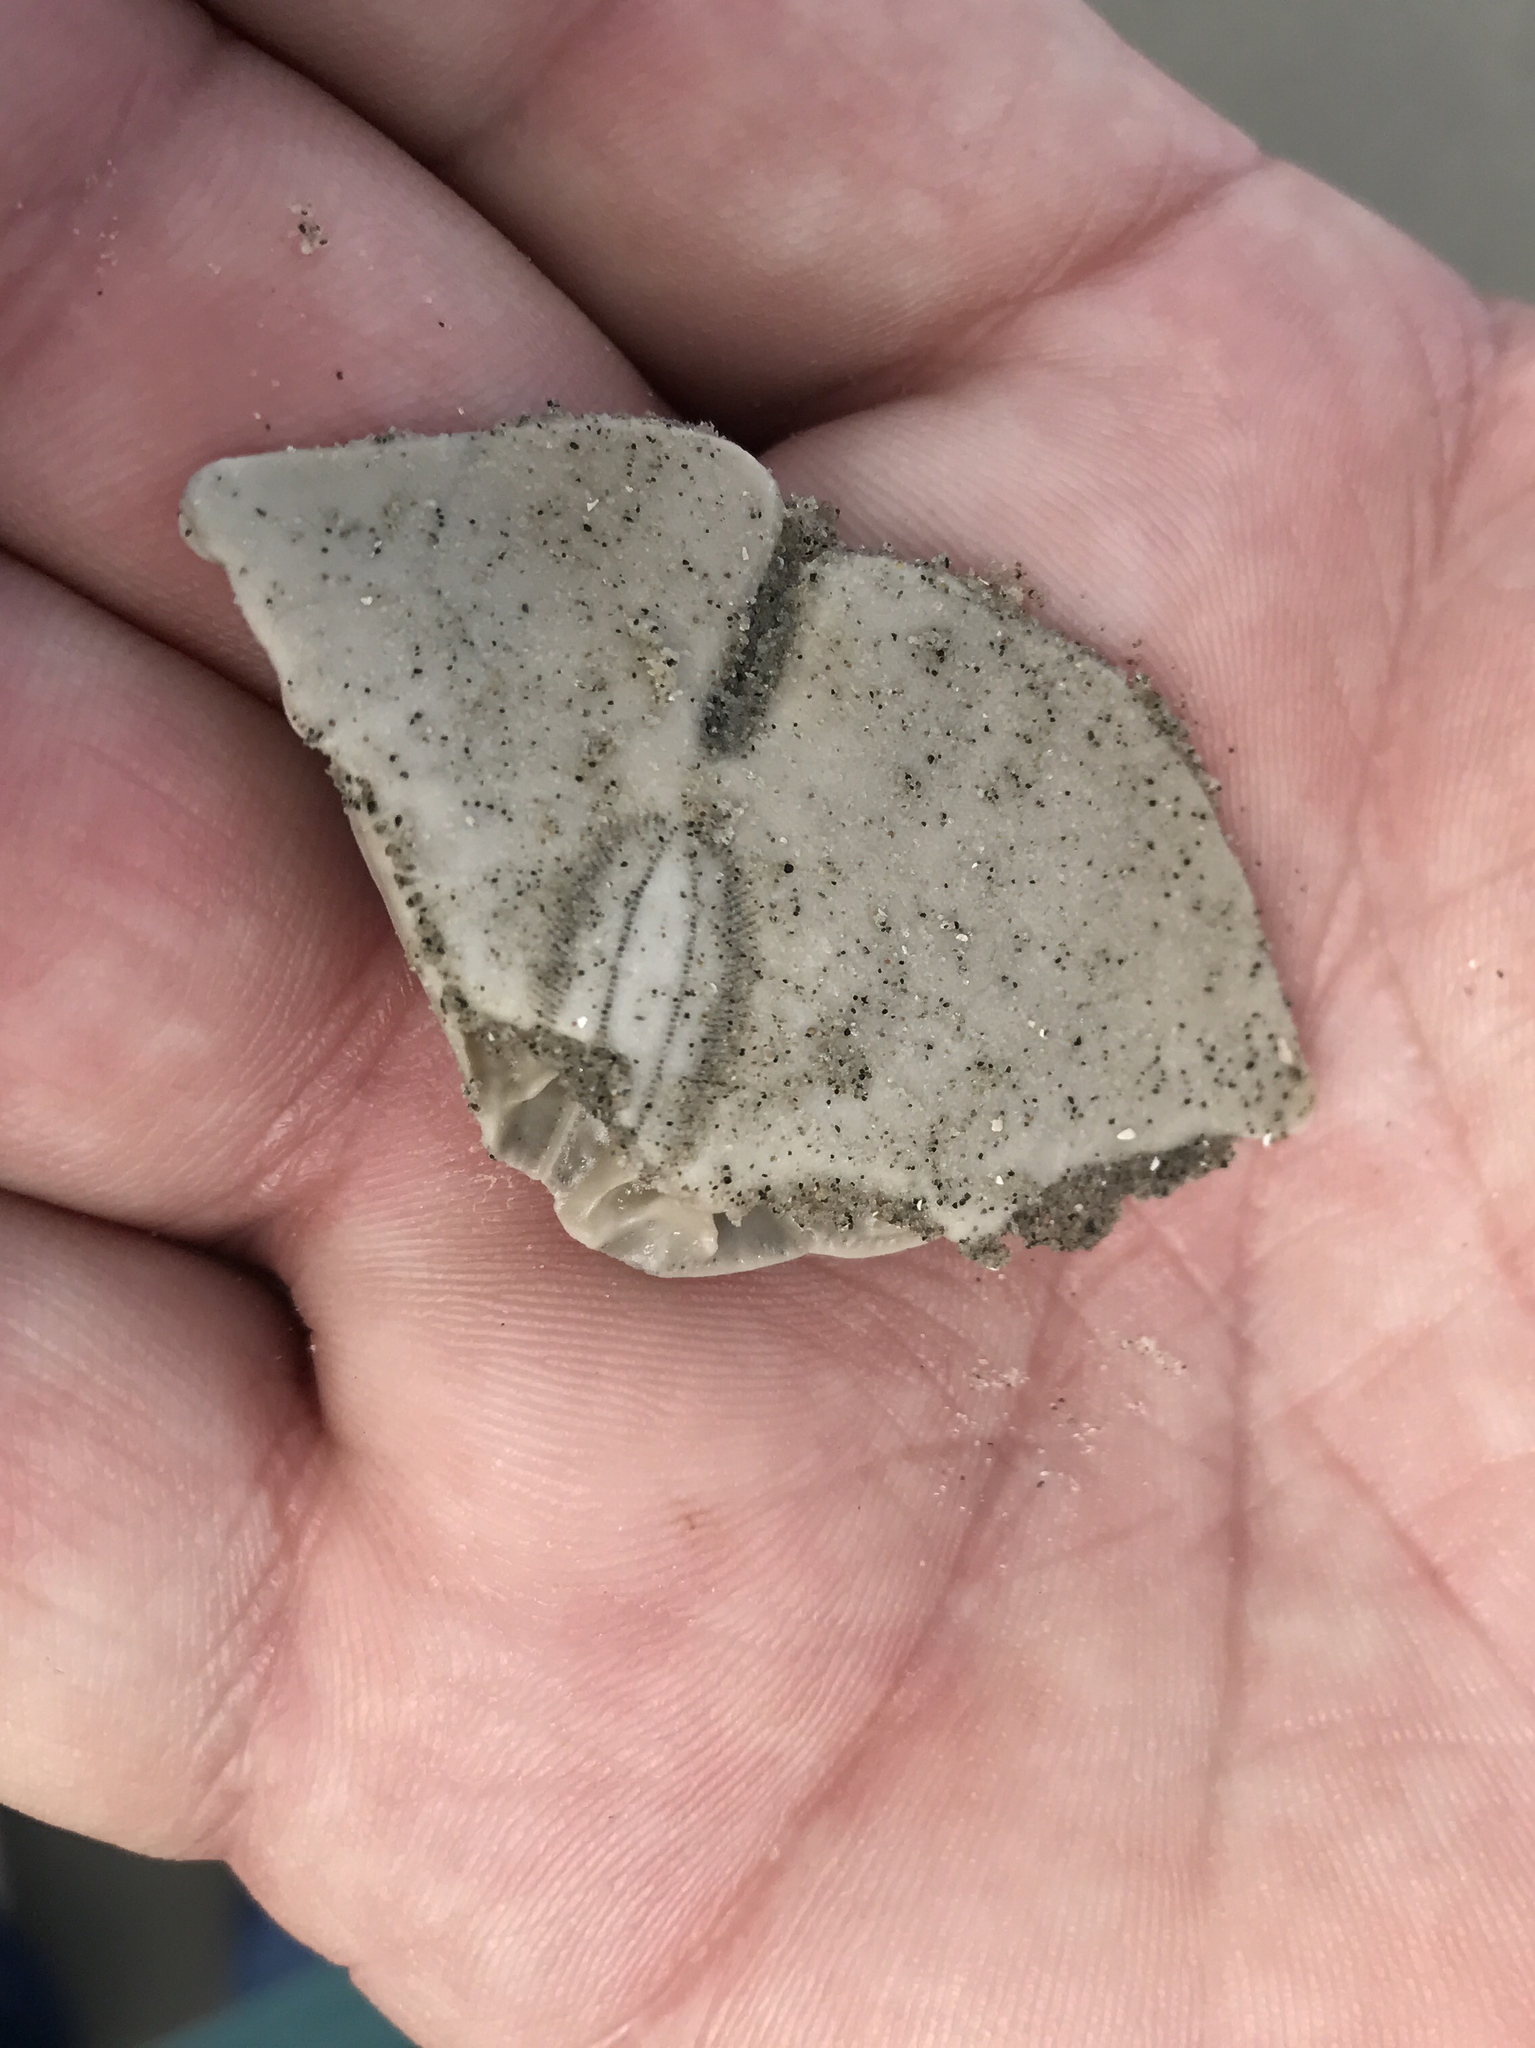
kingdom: Animalia
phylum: Echinodermata
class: Echinoidea
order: Echinolampadacea
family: Mellitidae
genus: Mellita
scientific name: Mellita quinquiesperforata
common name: Sand dollar
